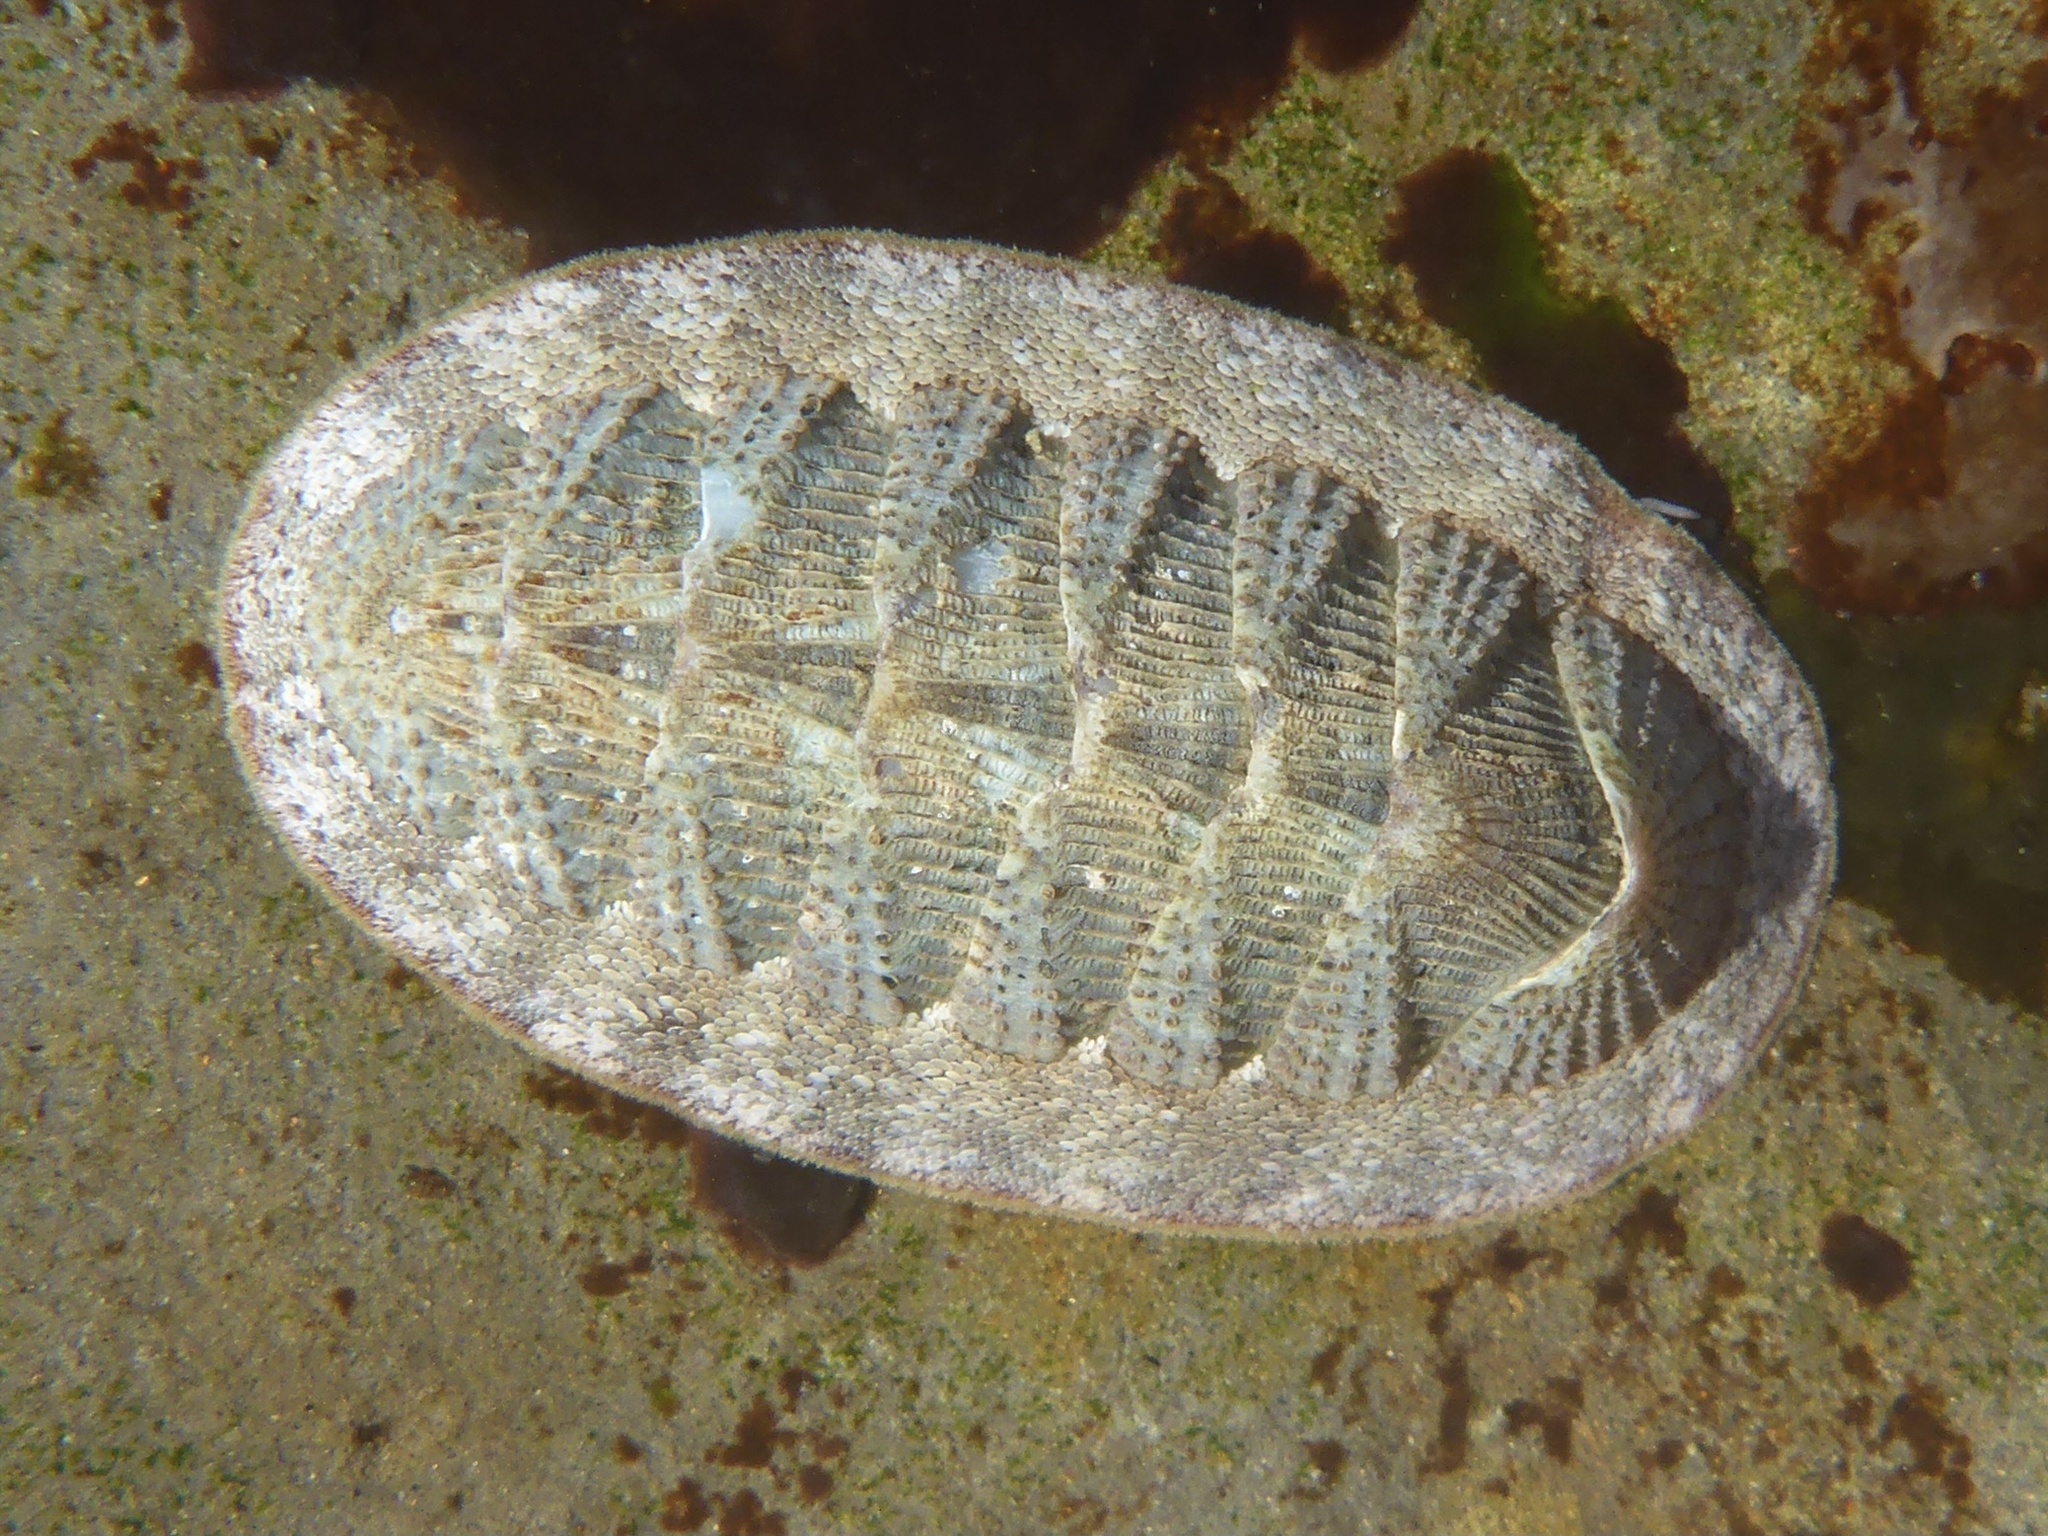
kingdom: Animalia
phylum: Mollusca
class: Polyplacophora
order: Chitonida
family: Ischnochitonidae
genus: Lepidozona
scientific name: Lepidozona cooperi
